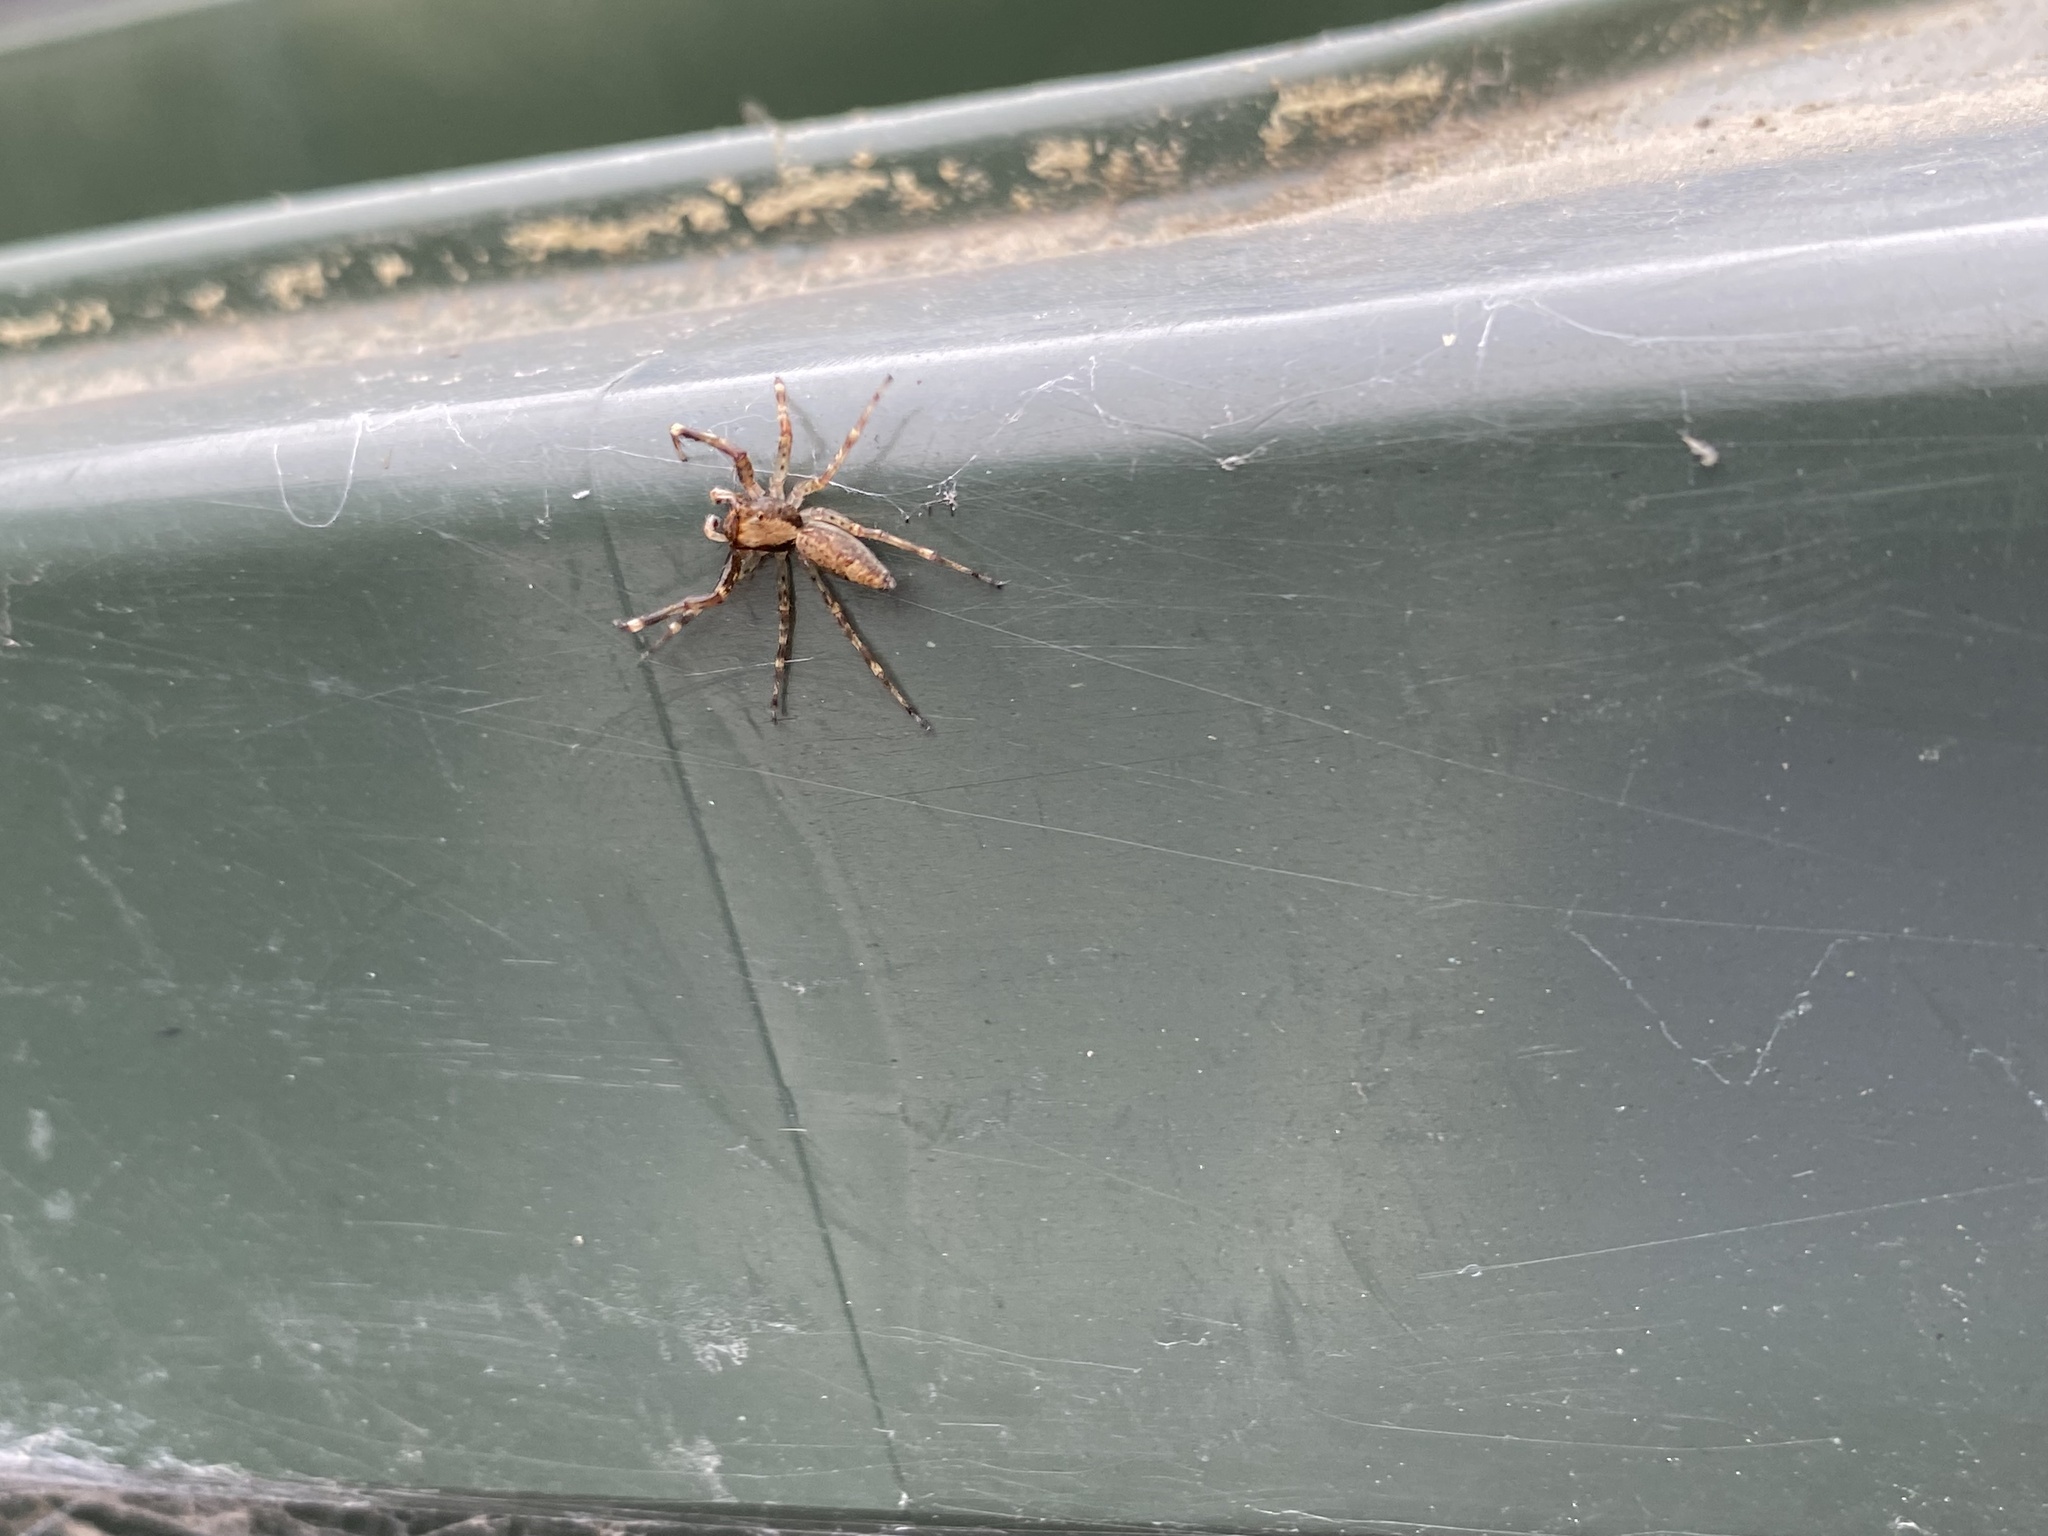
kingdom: Animalia
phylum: Arthropoda
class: Arachnida
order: Araneae
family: Salticidae
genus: Helpis
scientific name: Helpis minitabunda
